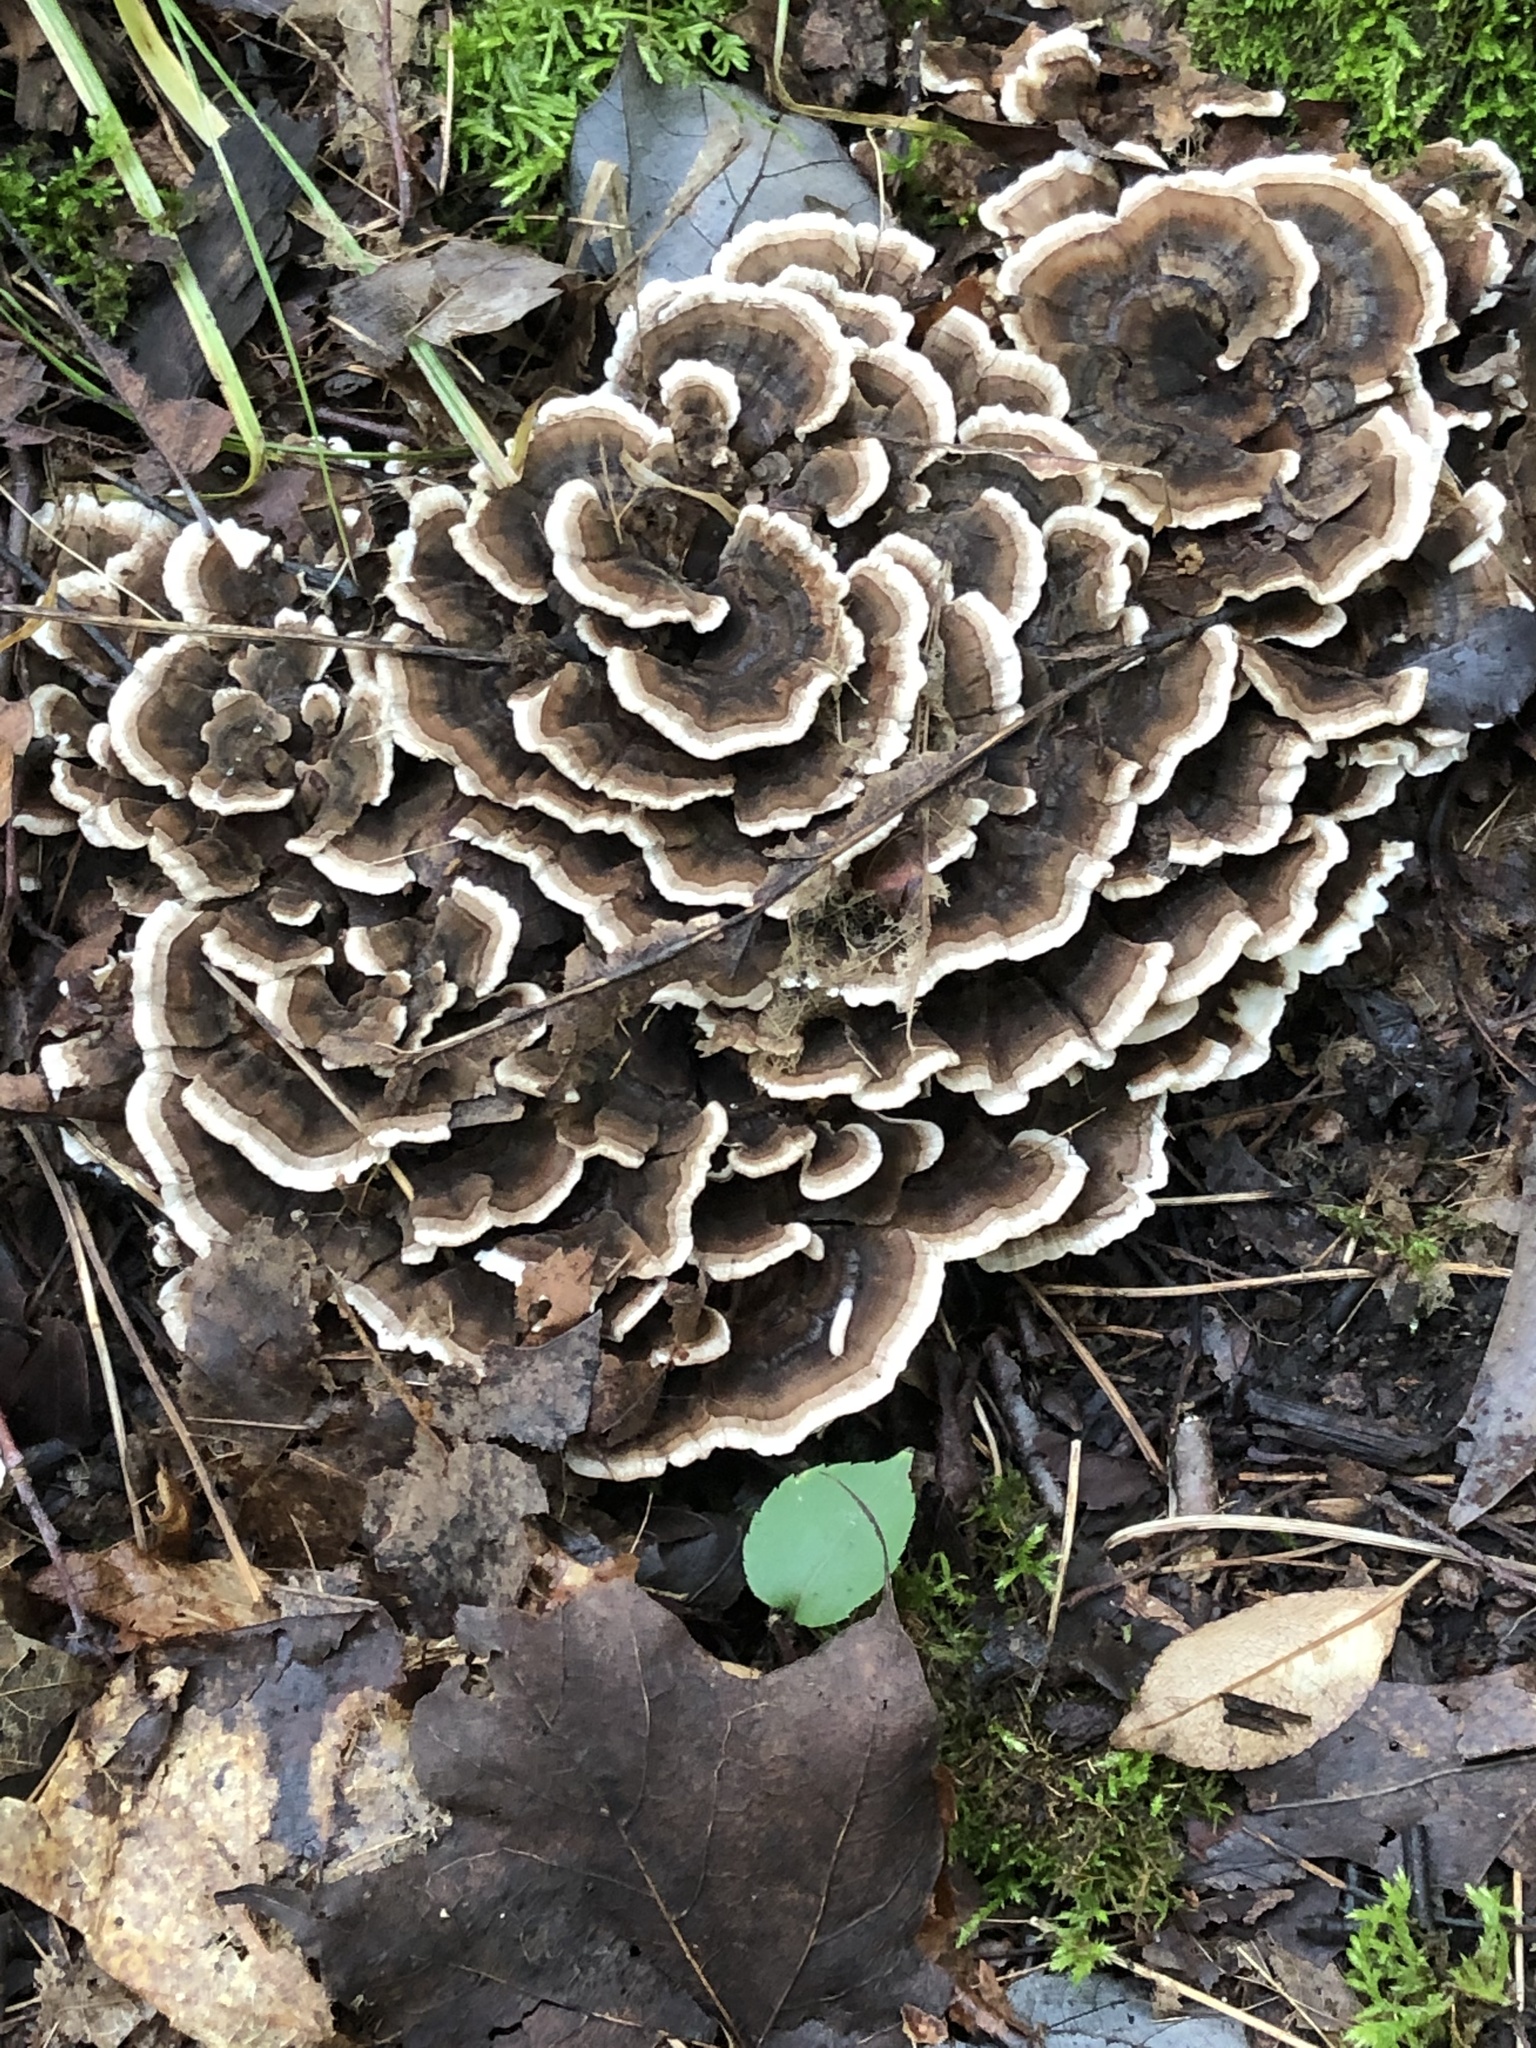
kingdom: Fungi
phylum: Basidiomycota
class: Agaricomycetes
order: Polyporales
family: Polyporaceae
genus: Trametes
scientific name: Trametes versicolor
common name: Turkeytail
